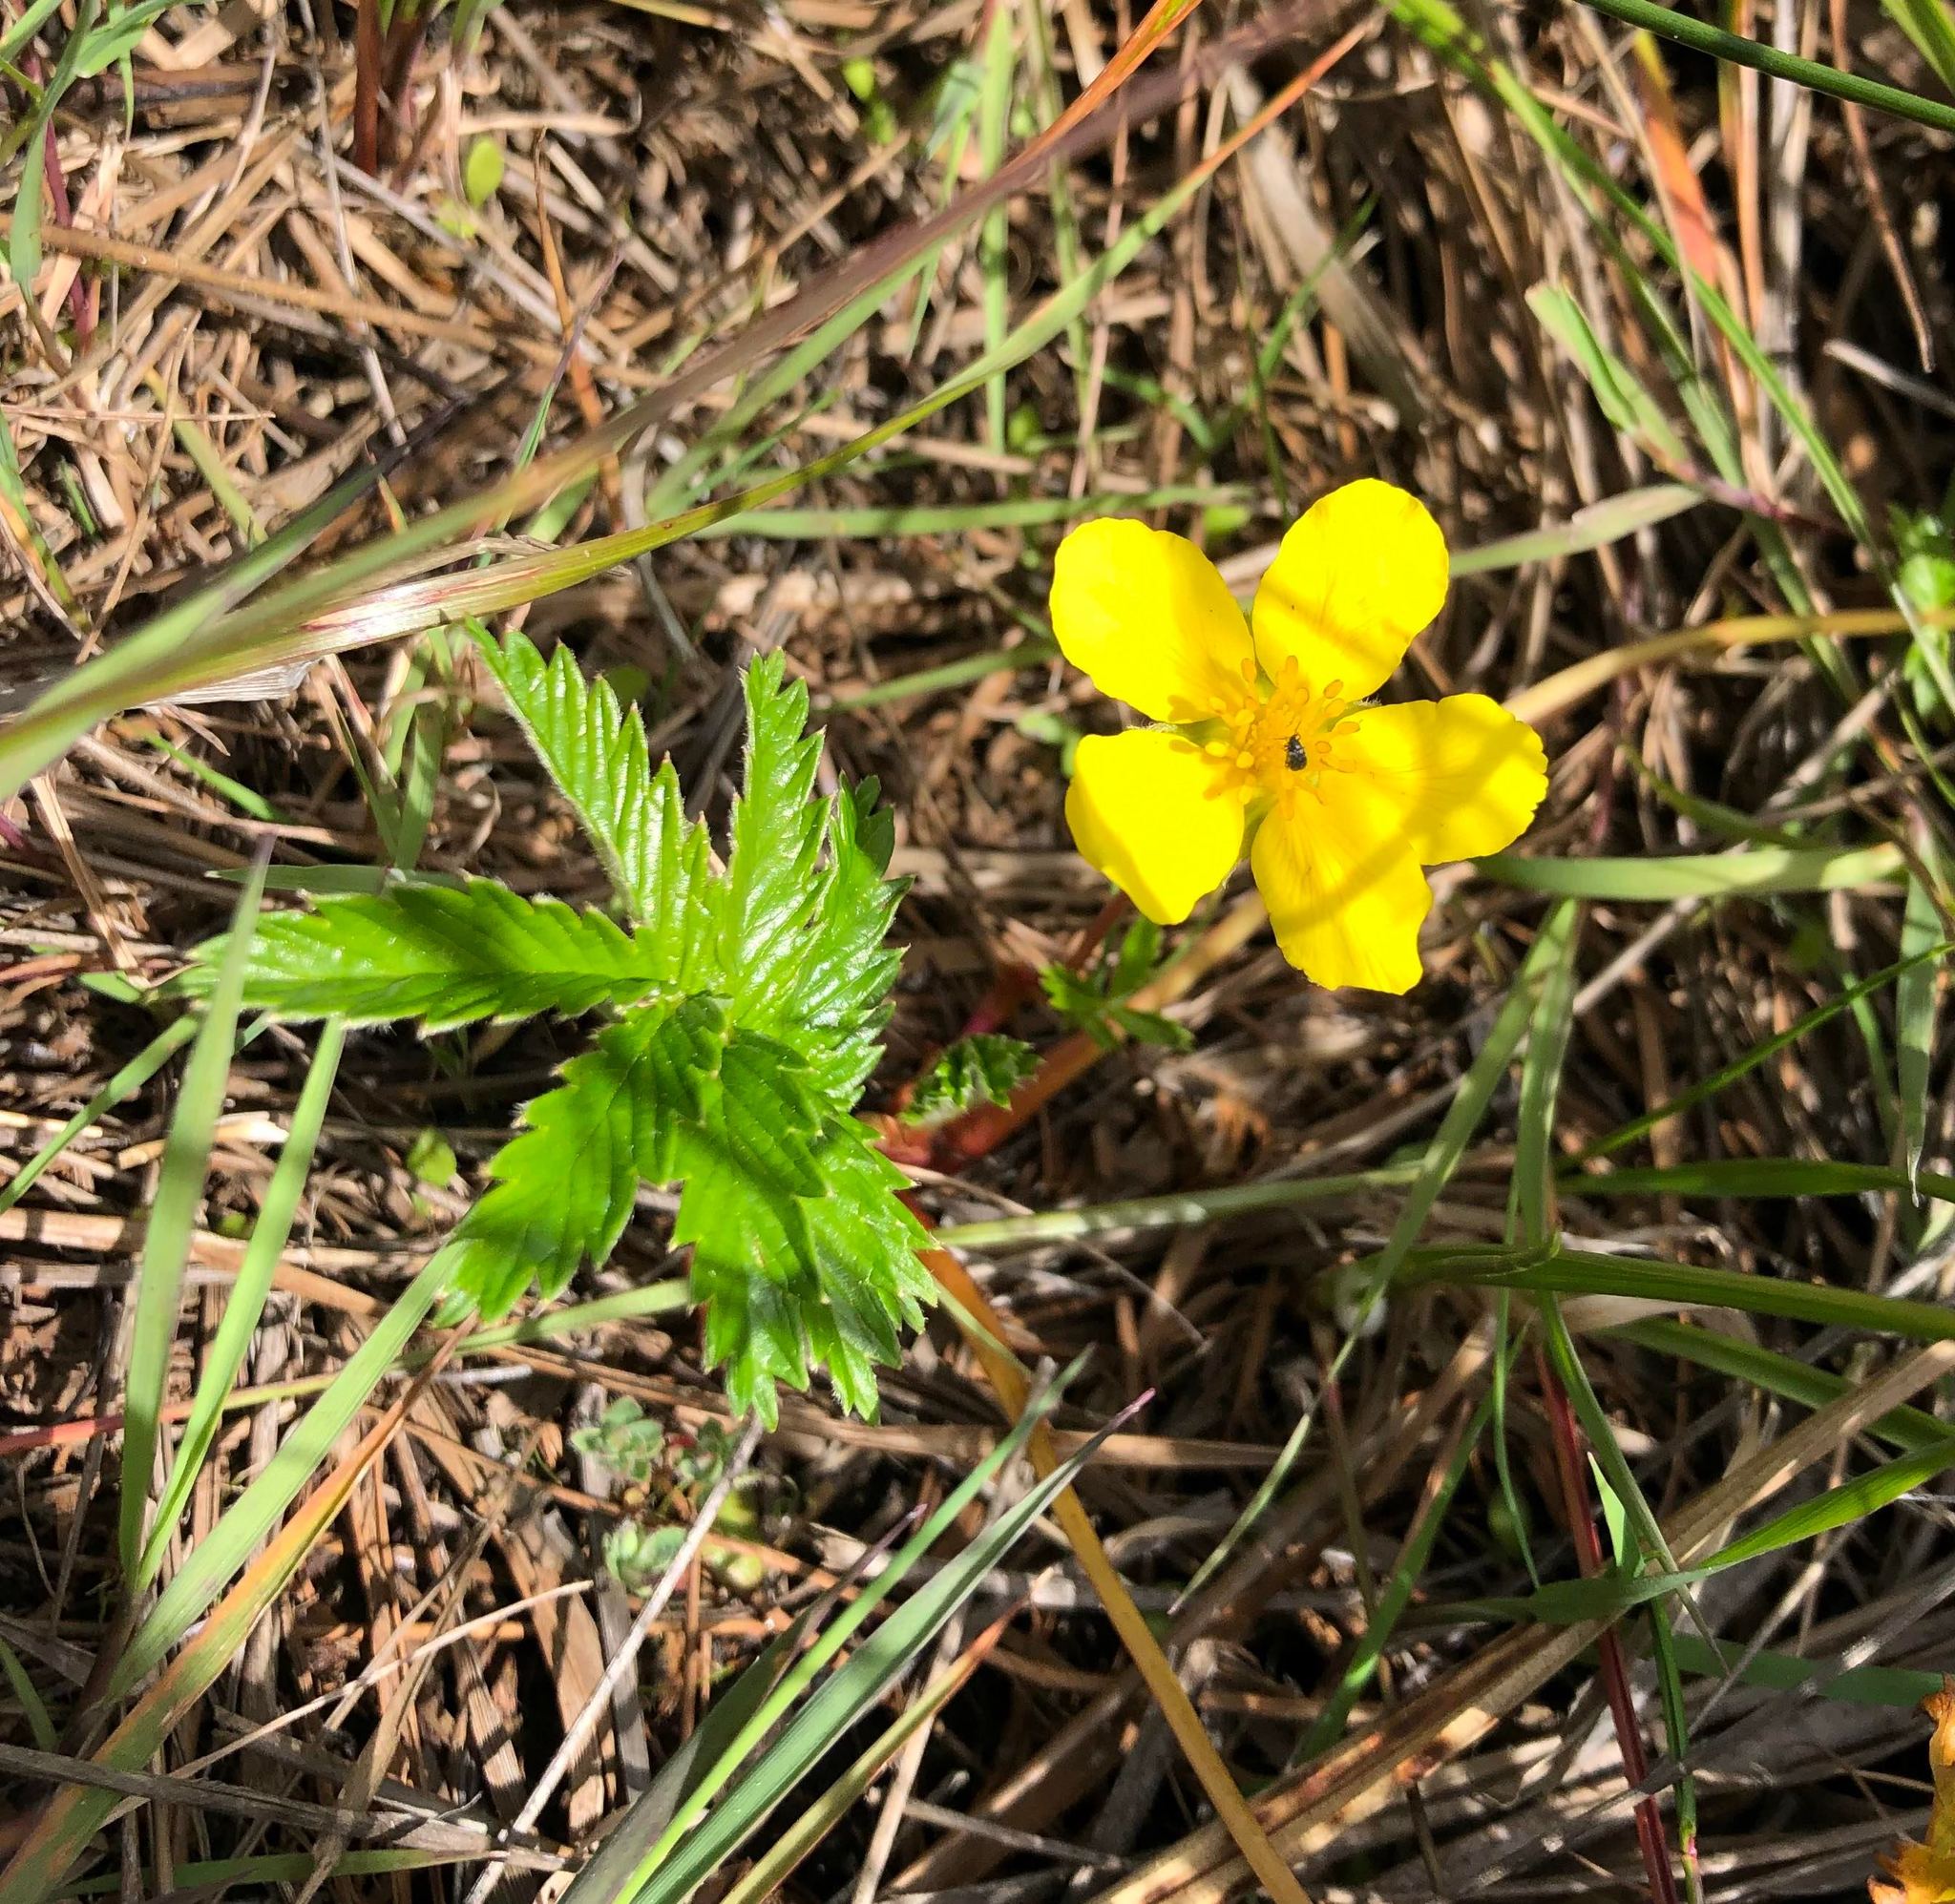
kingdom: Plantae
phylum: Tracheophyta
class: Magnoliopsida
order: Rosales
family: Rosaceae
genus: Argentina
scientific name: Argentina anserina
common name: Common silverweed
